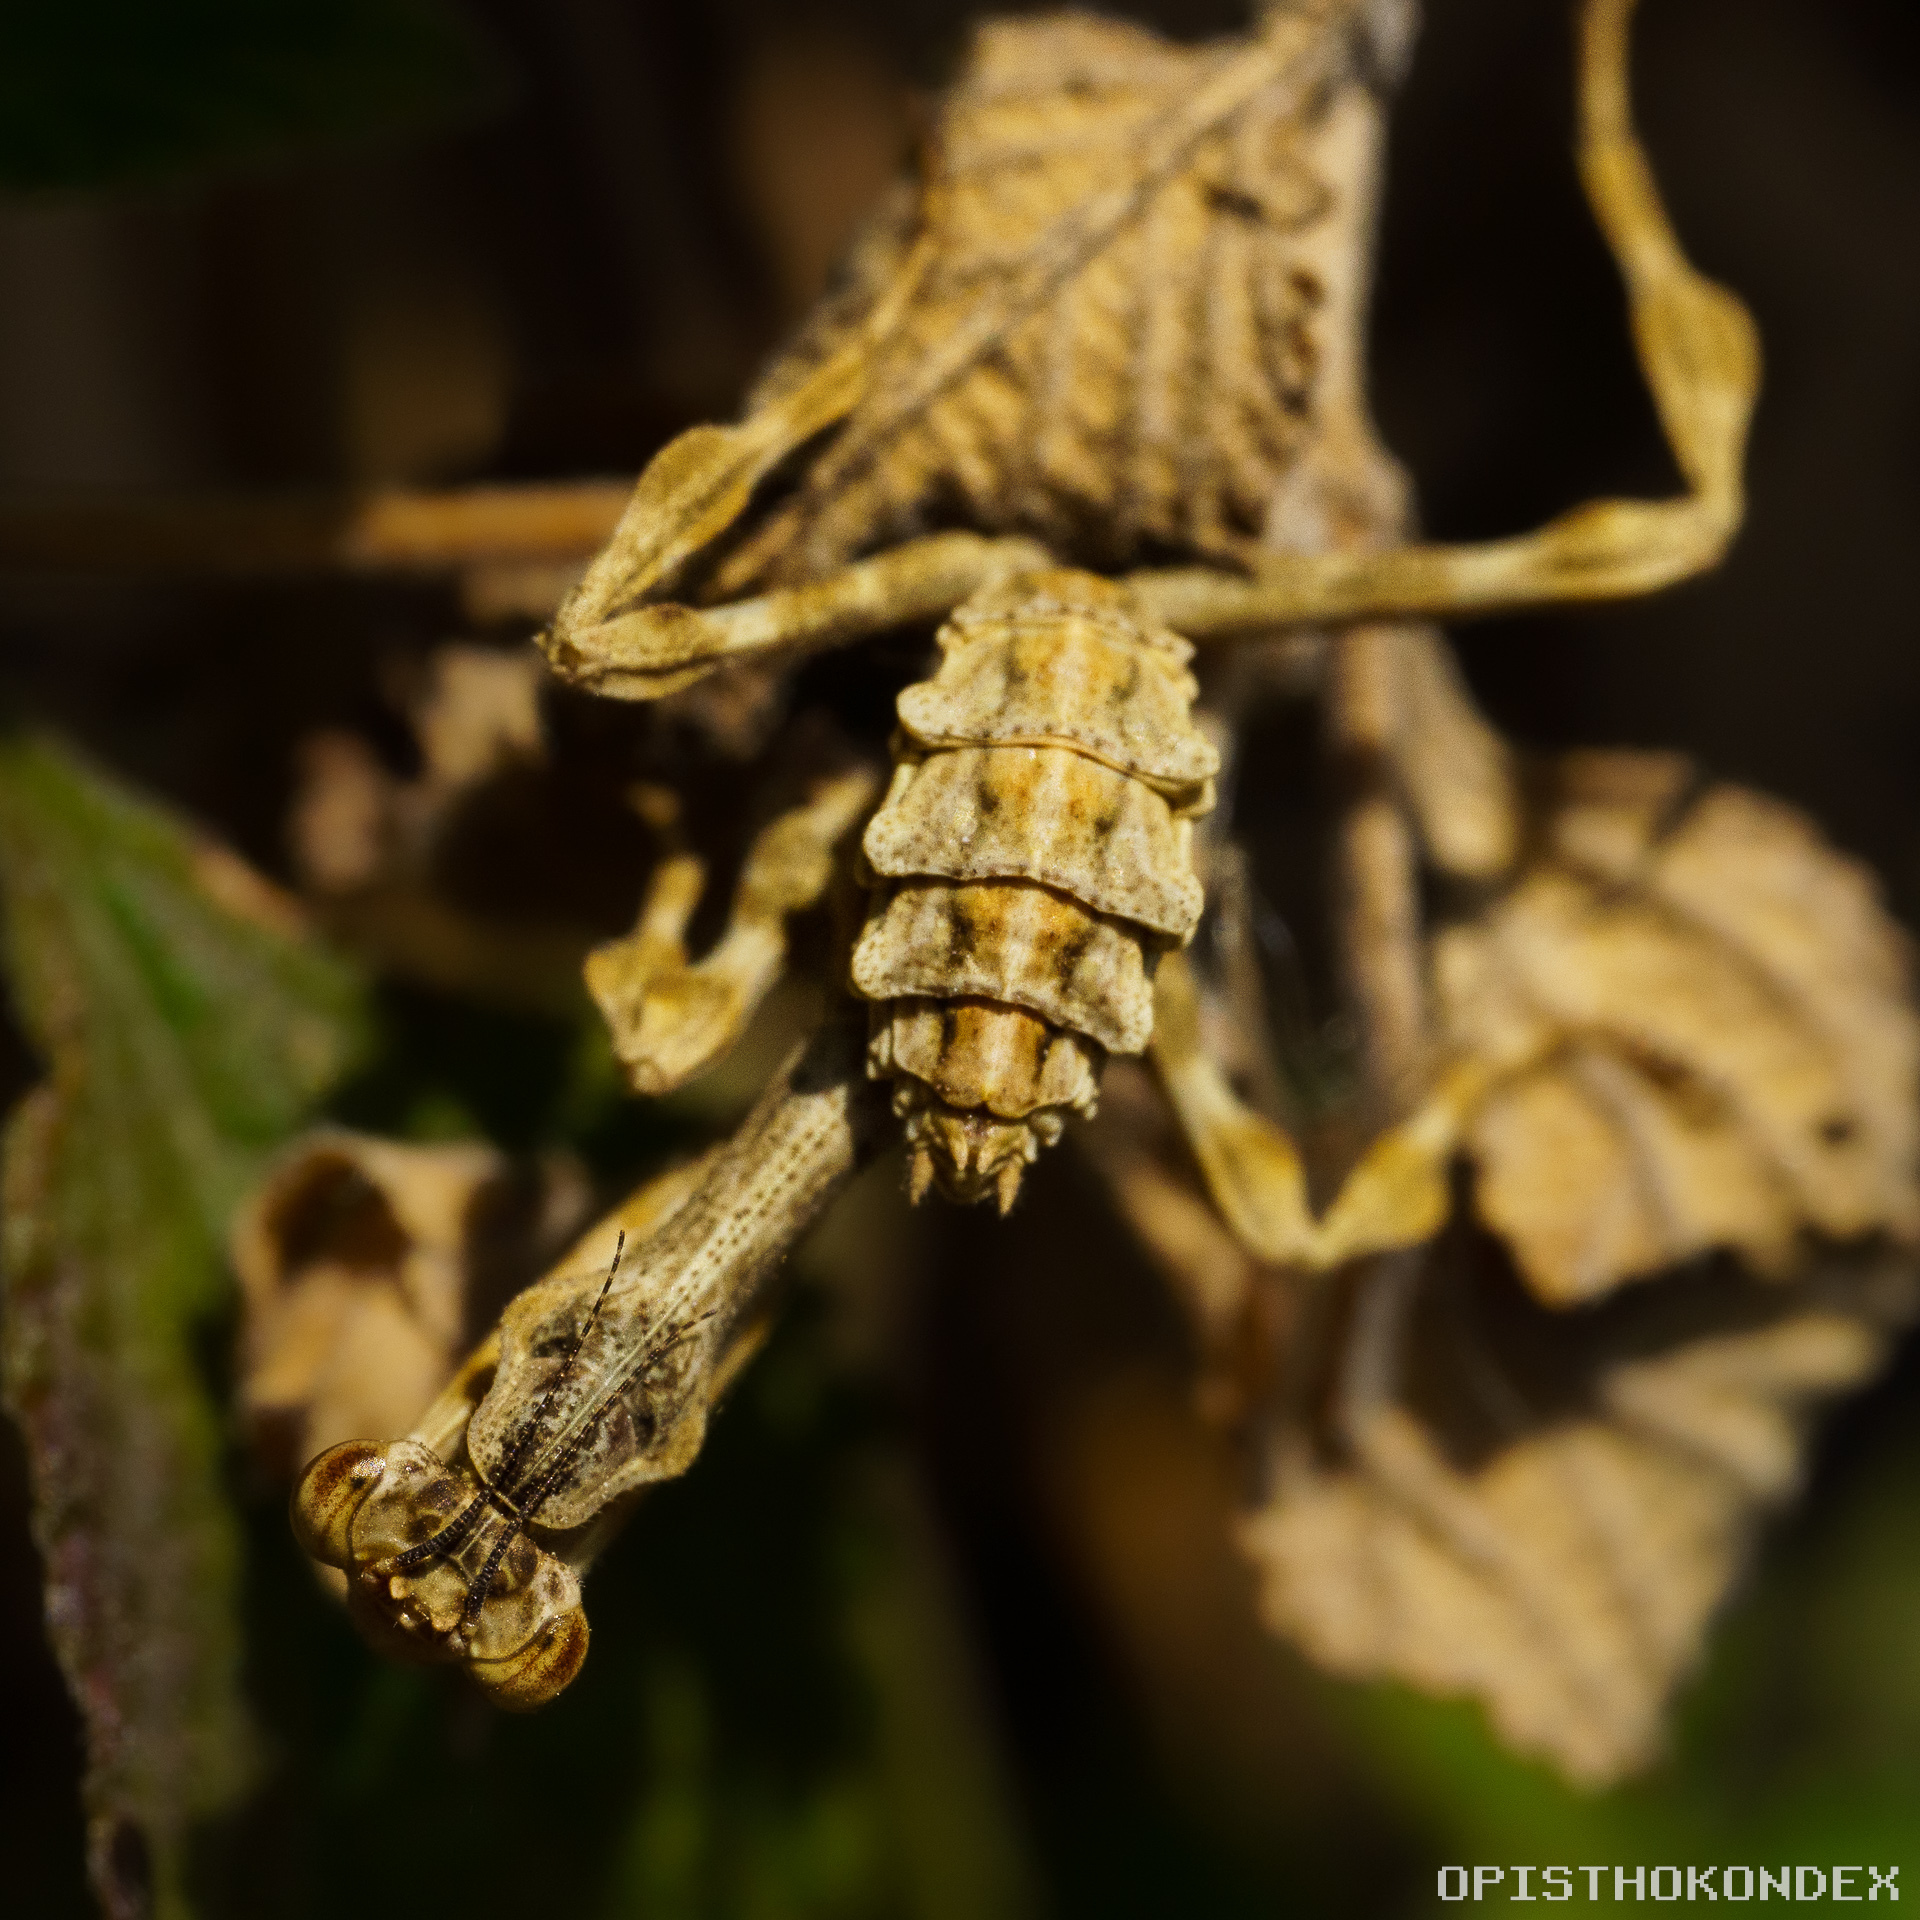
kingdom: Animalia
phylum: Arthropoda
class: Insecta
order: Mantodea
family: Mantidae
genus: Pseudovates
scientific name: Pseudovates tolteca
